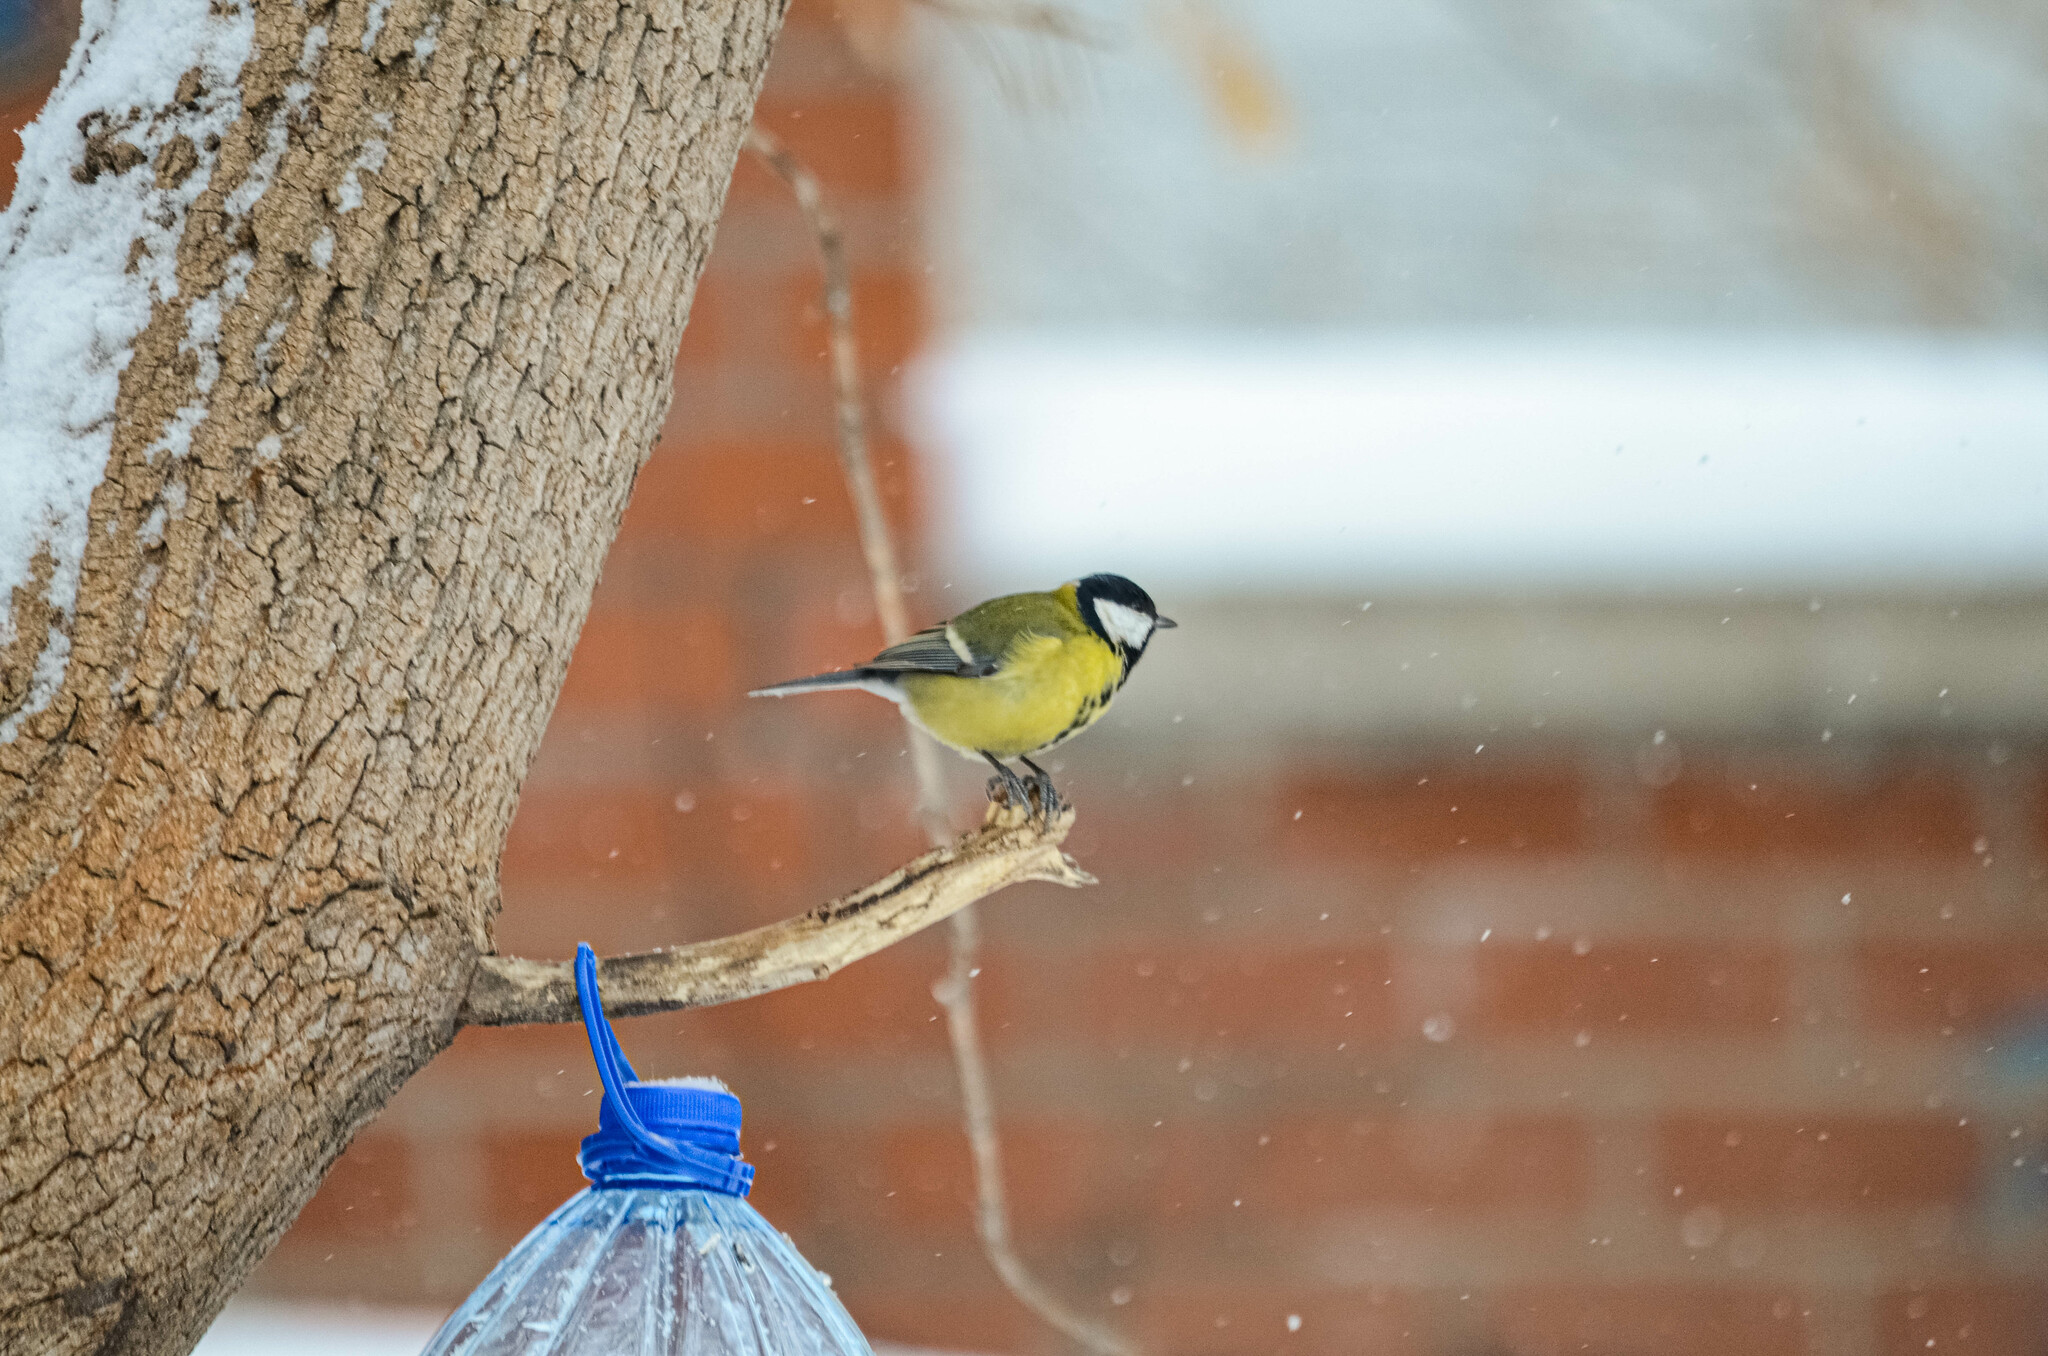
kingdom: Animalia
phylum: Chordata
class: Aves
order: Passeriformes
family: Paridae
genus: Parus
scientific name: Parus major
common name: Great tit
